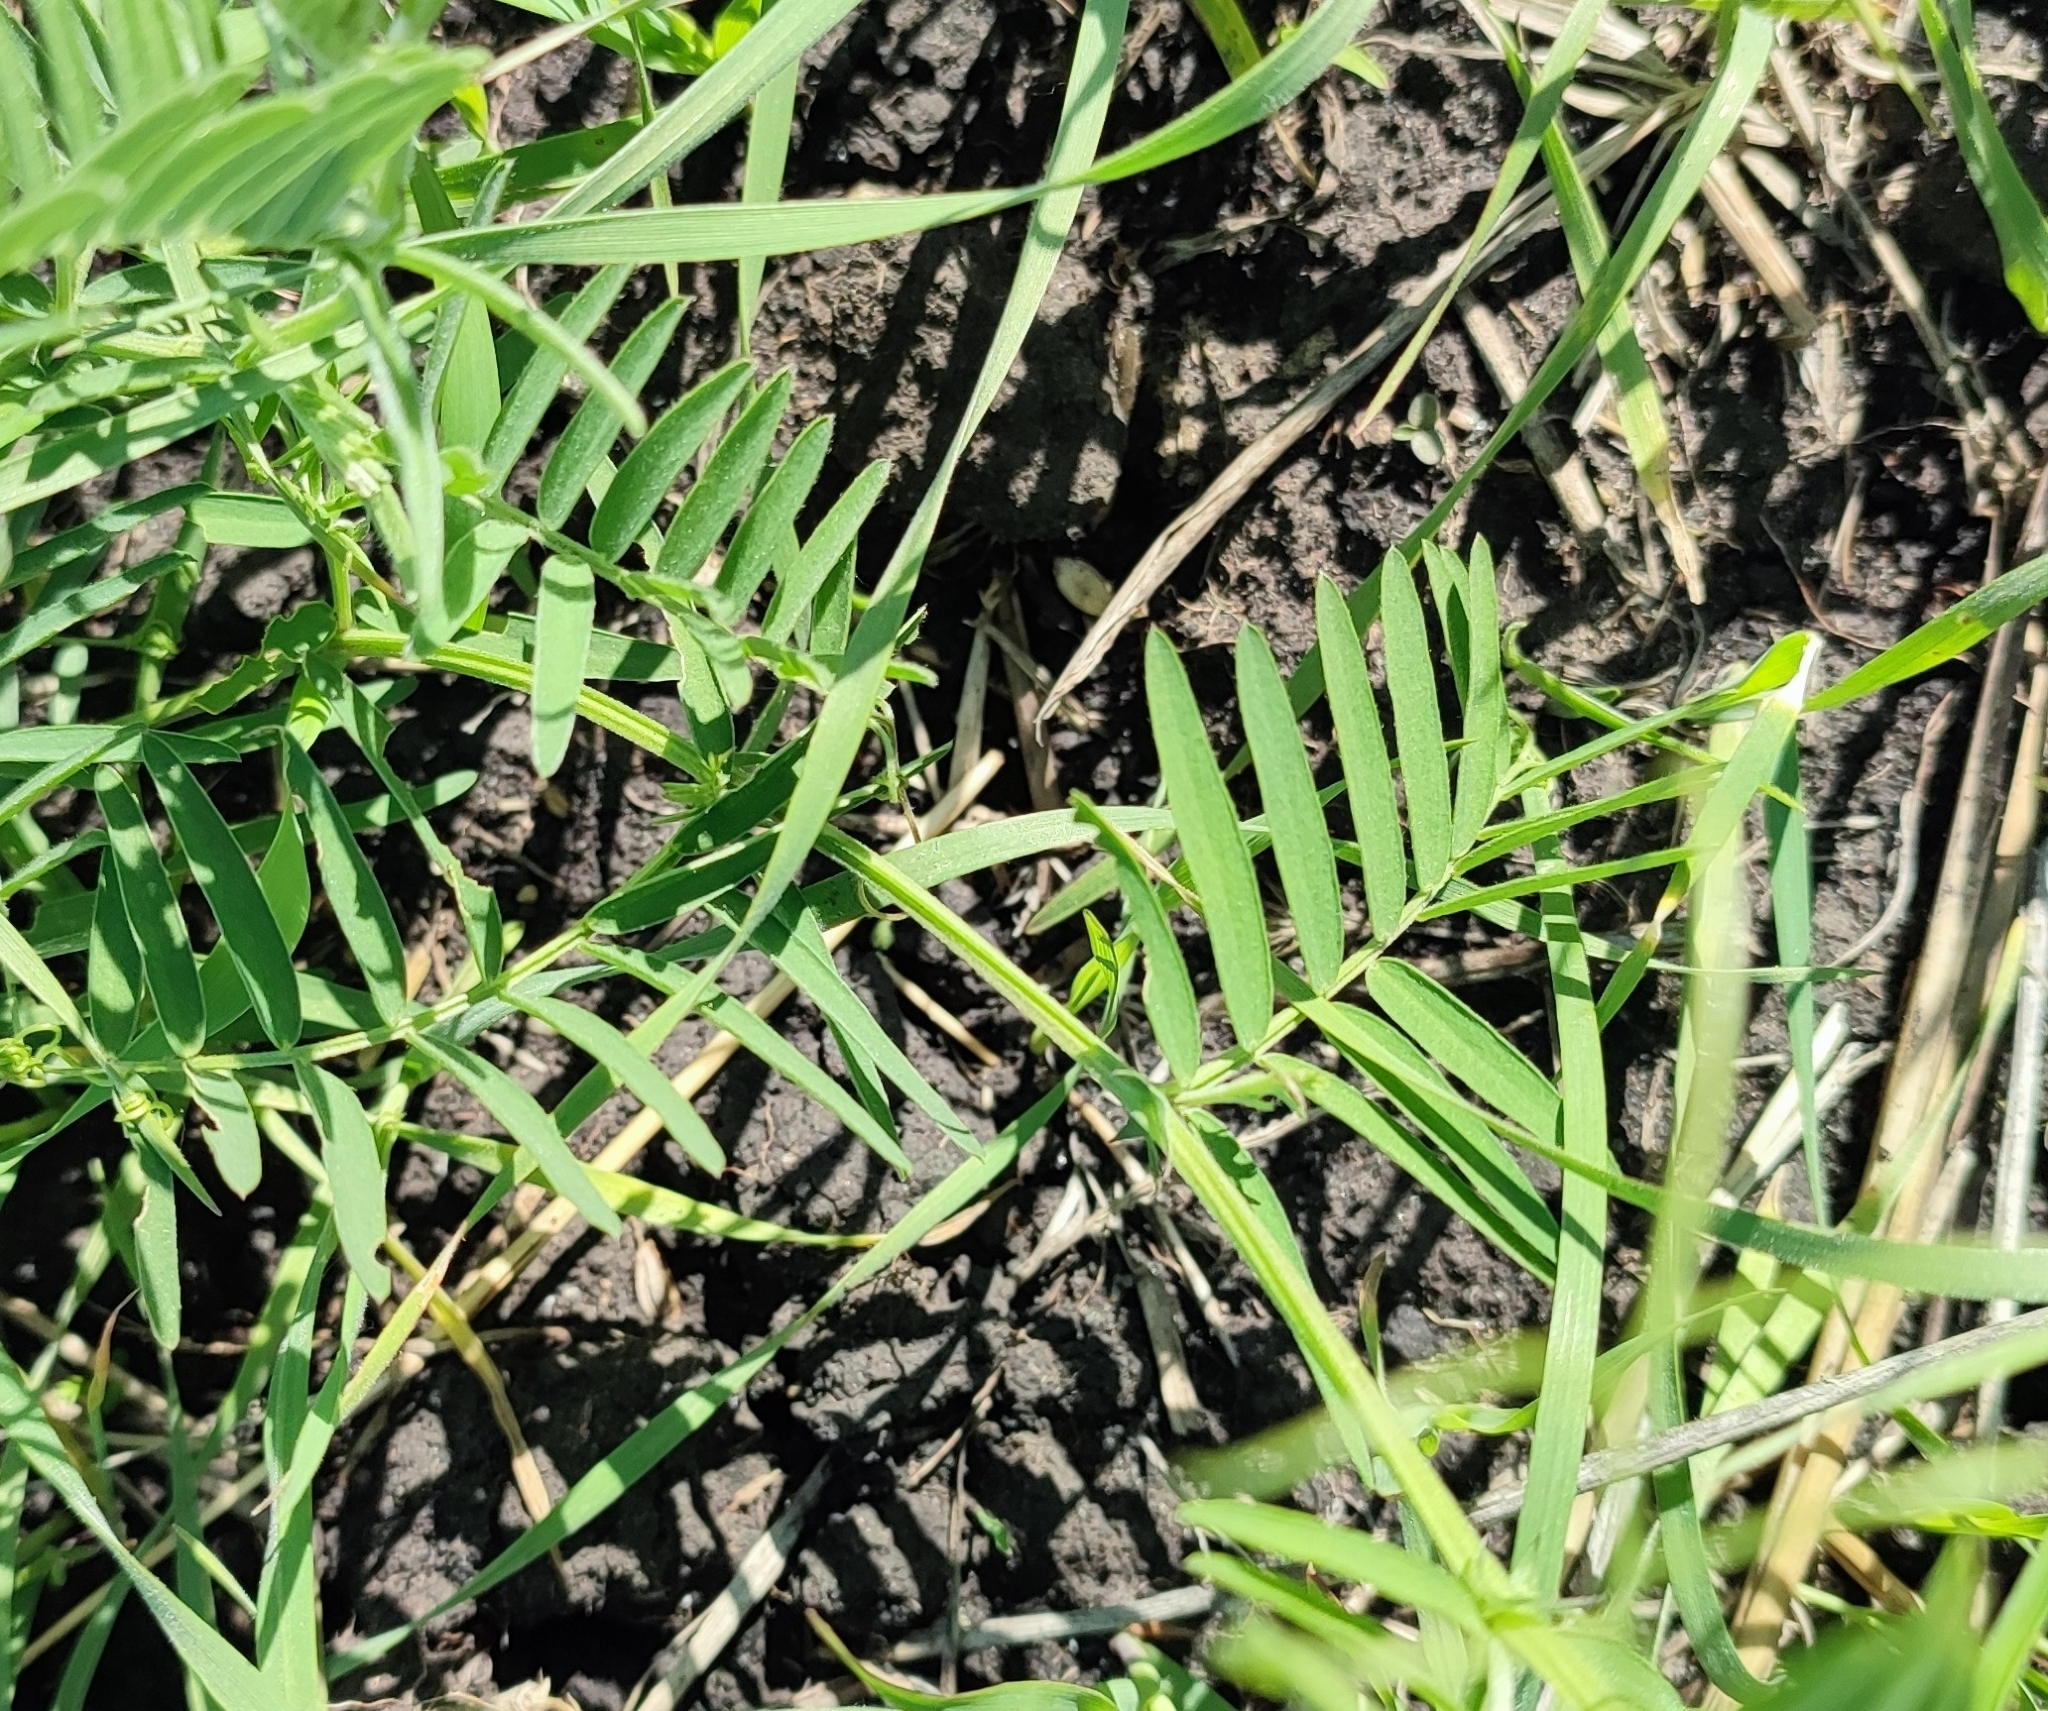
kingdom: Plantae
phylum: Tracheophyta
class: Magnoliopsida
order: Fabales
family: Fabaceae
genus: Vicia
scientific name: Vicia cracca
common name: Bird vetch
